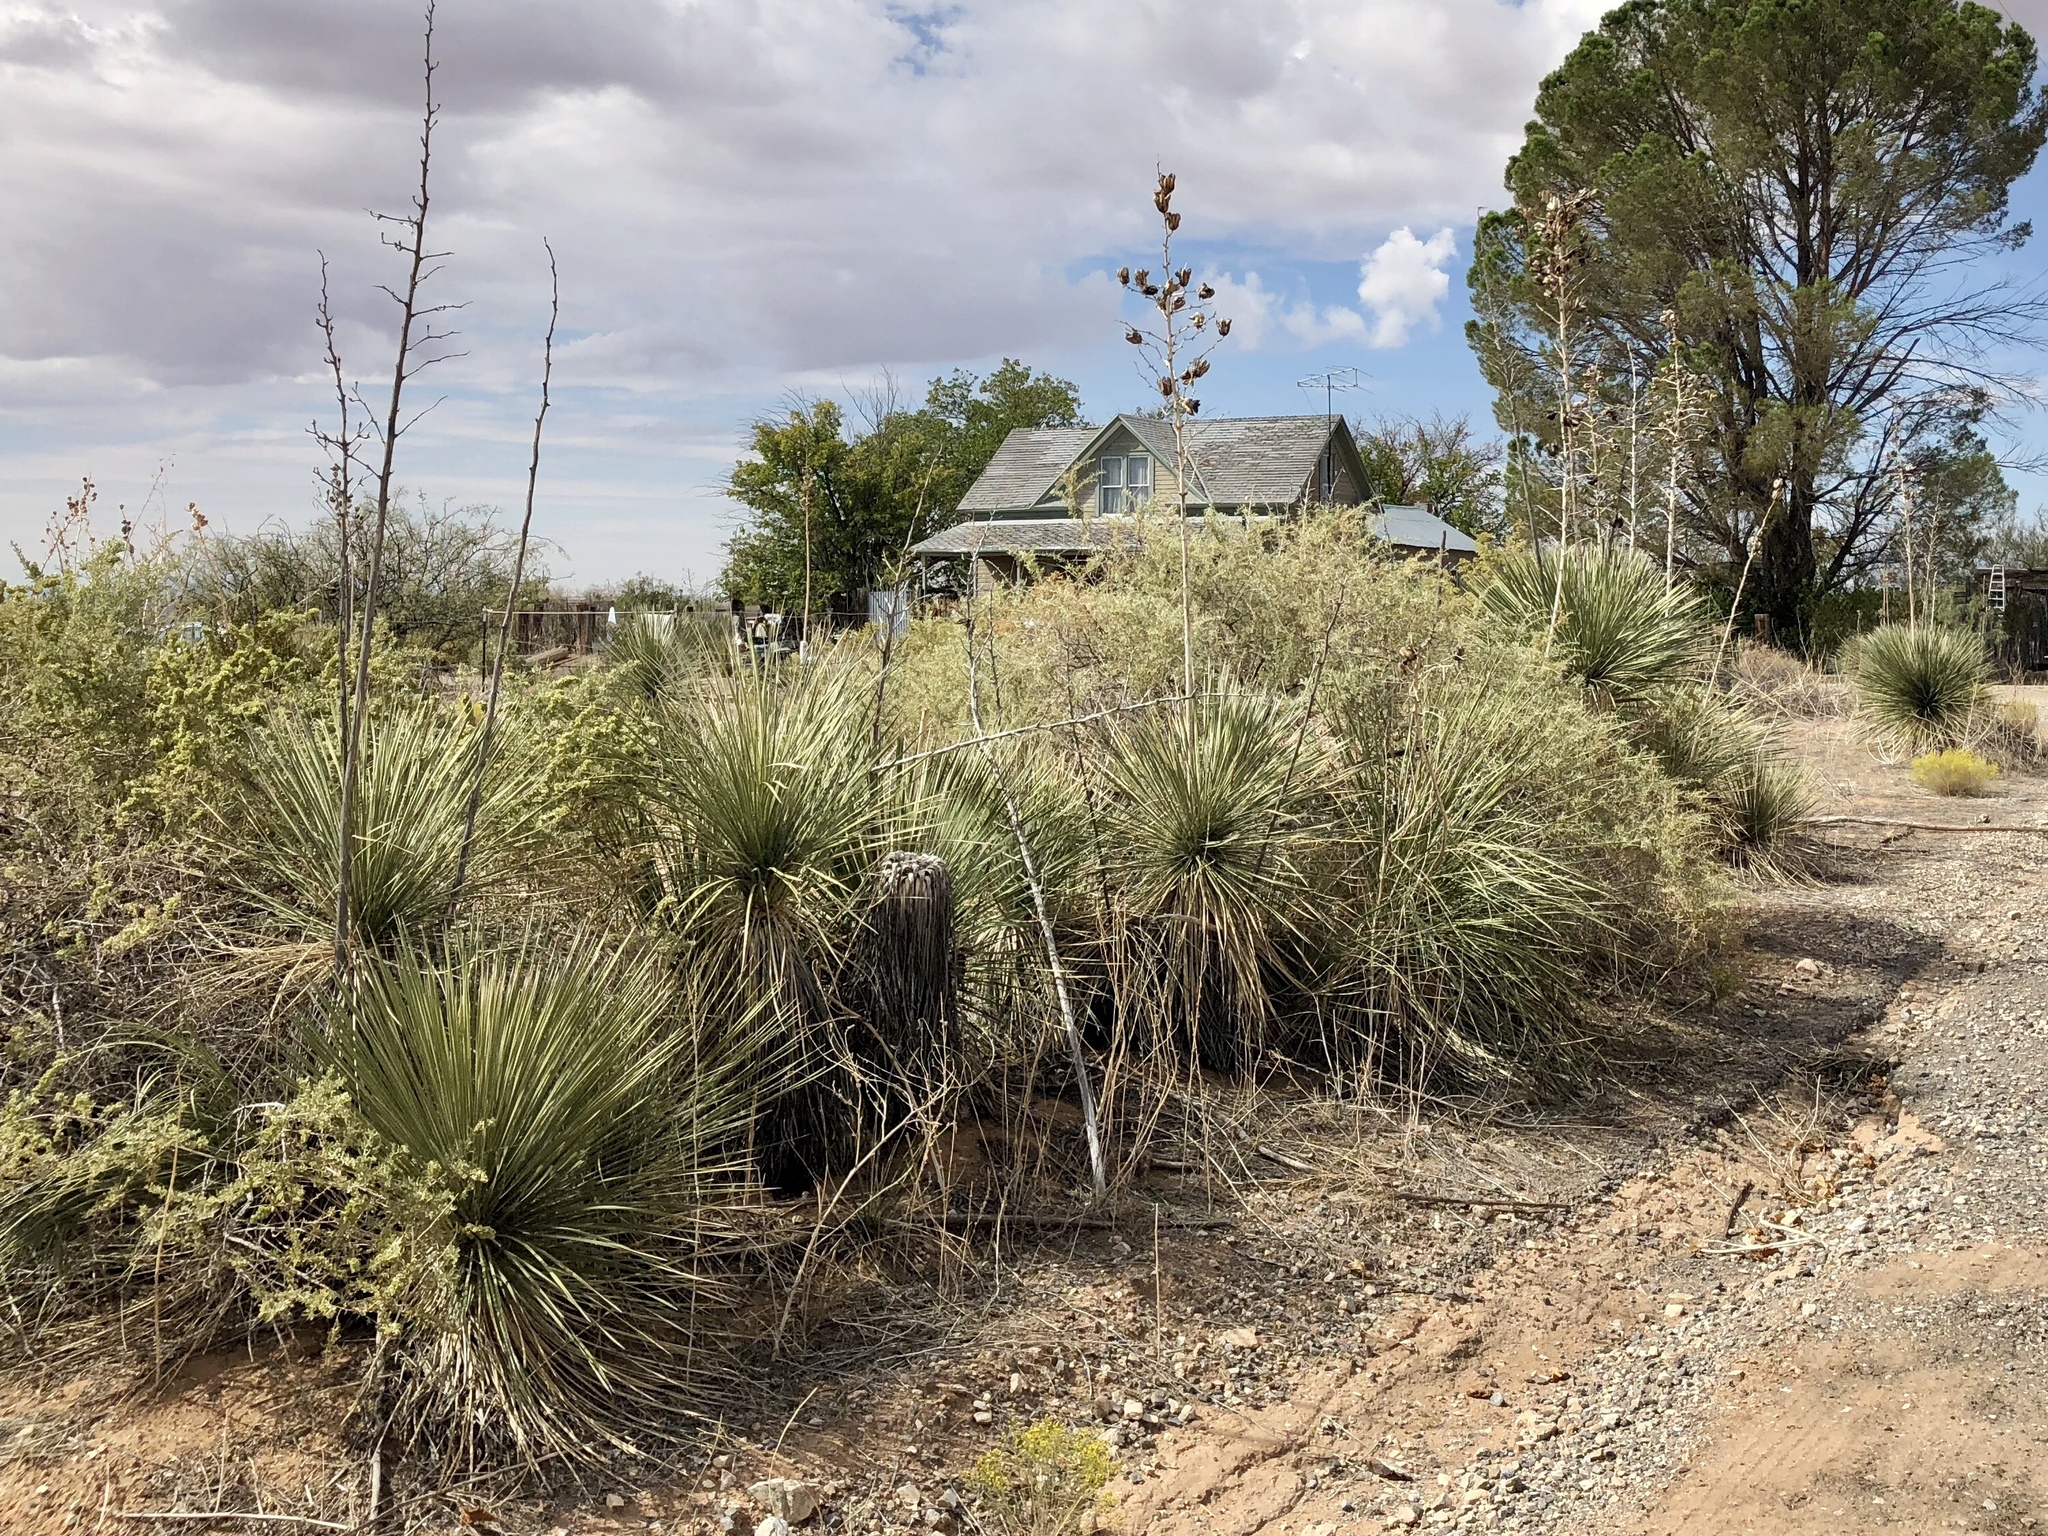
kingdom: Plantae
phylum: Tracheophyta
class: Liliopsida
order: Asparagales
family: Asparagaceae
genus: Yucca
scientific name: Yucca elata
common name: Palmella
